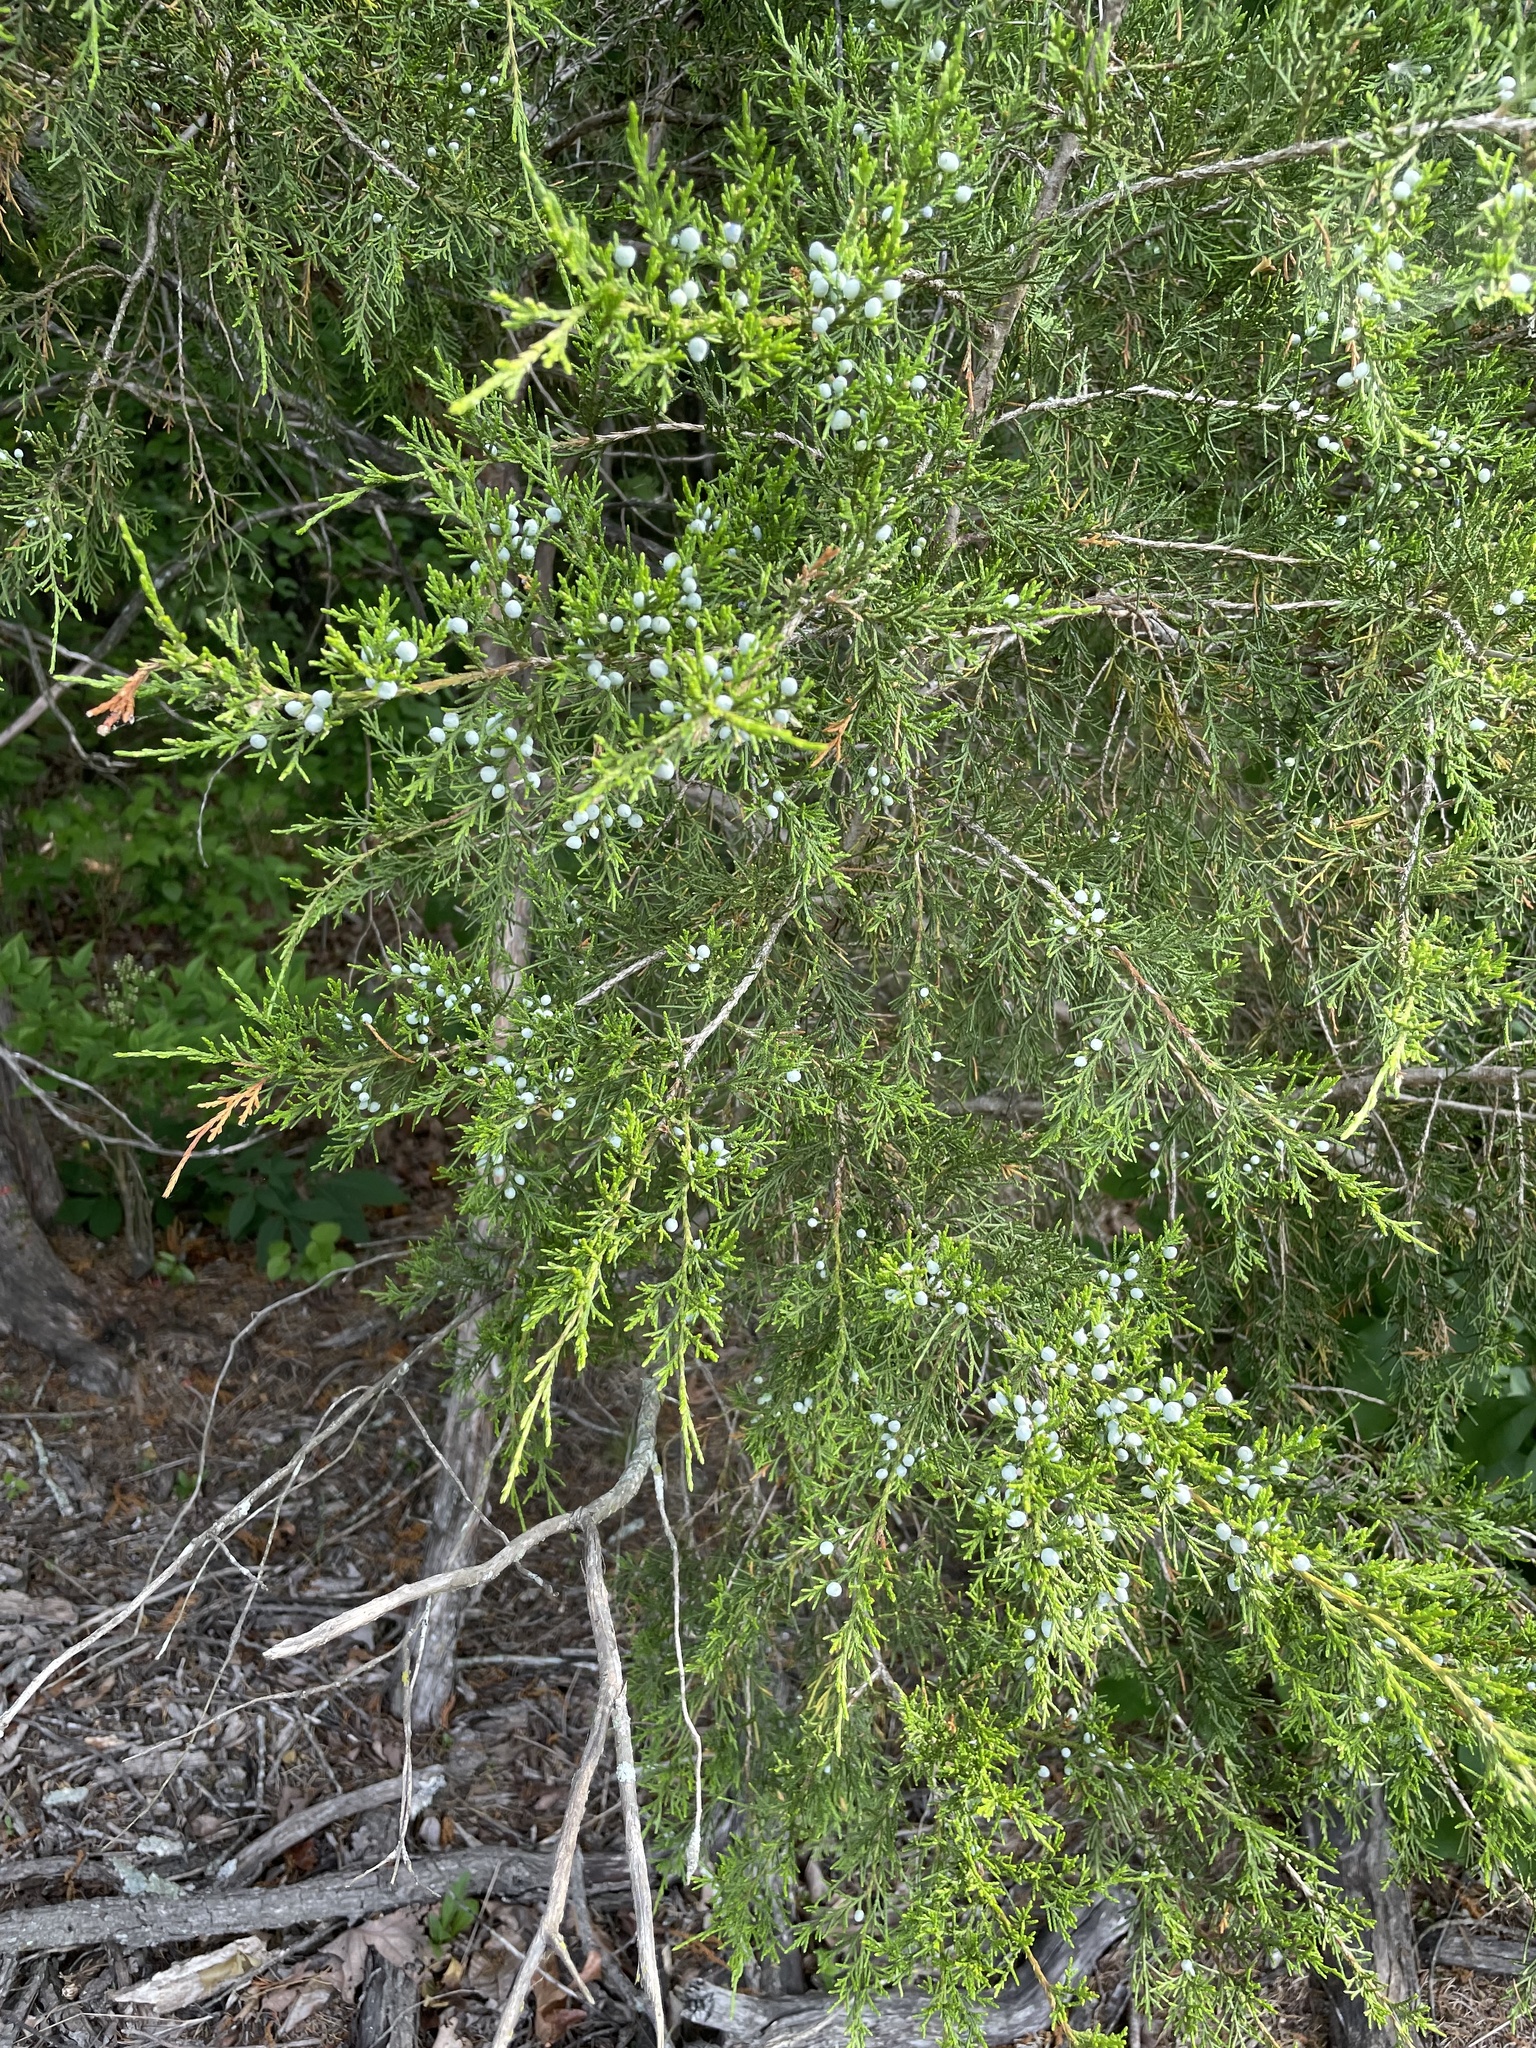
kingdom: Plantae
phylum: Tracheophyta
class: Pinopsida
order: Pinales
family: Cupressaceae
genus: Juniperus
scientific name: Juniperus virginiana
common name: Red juniper
